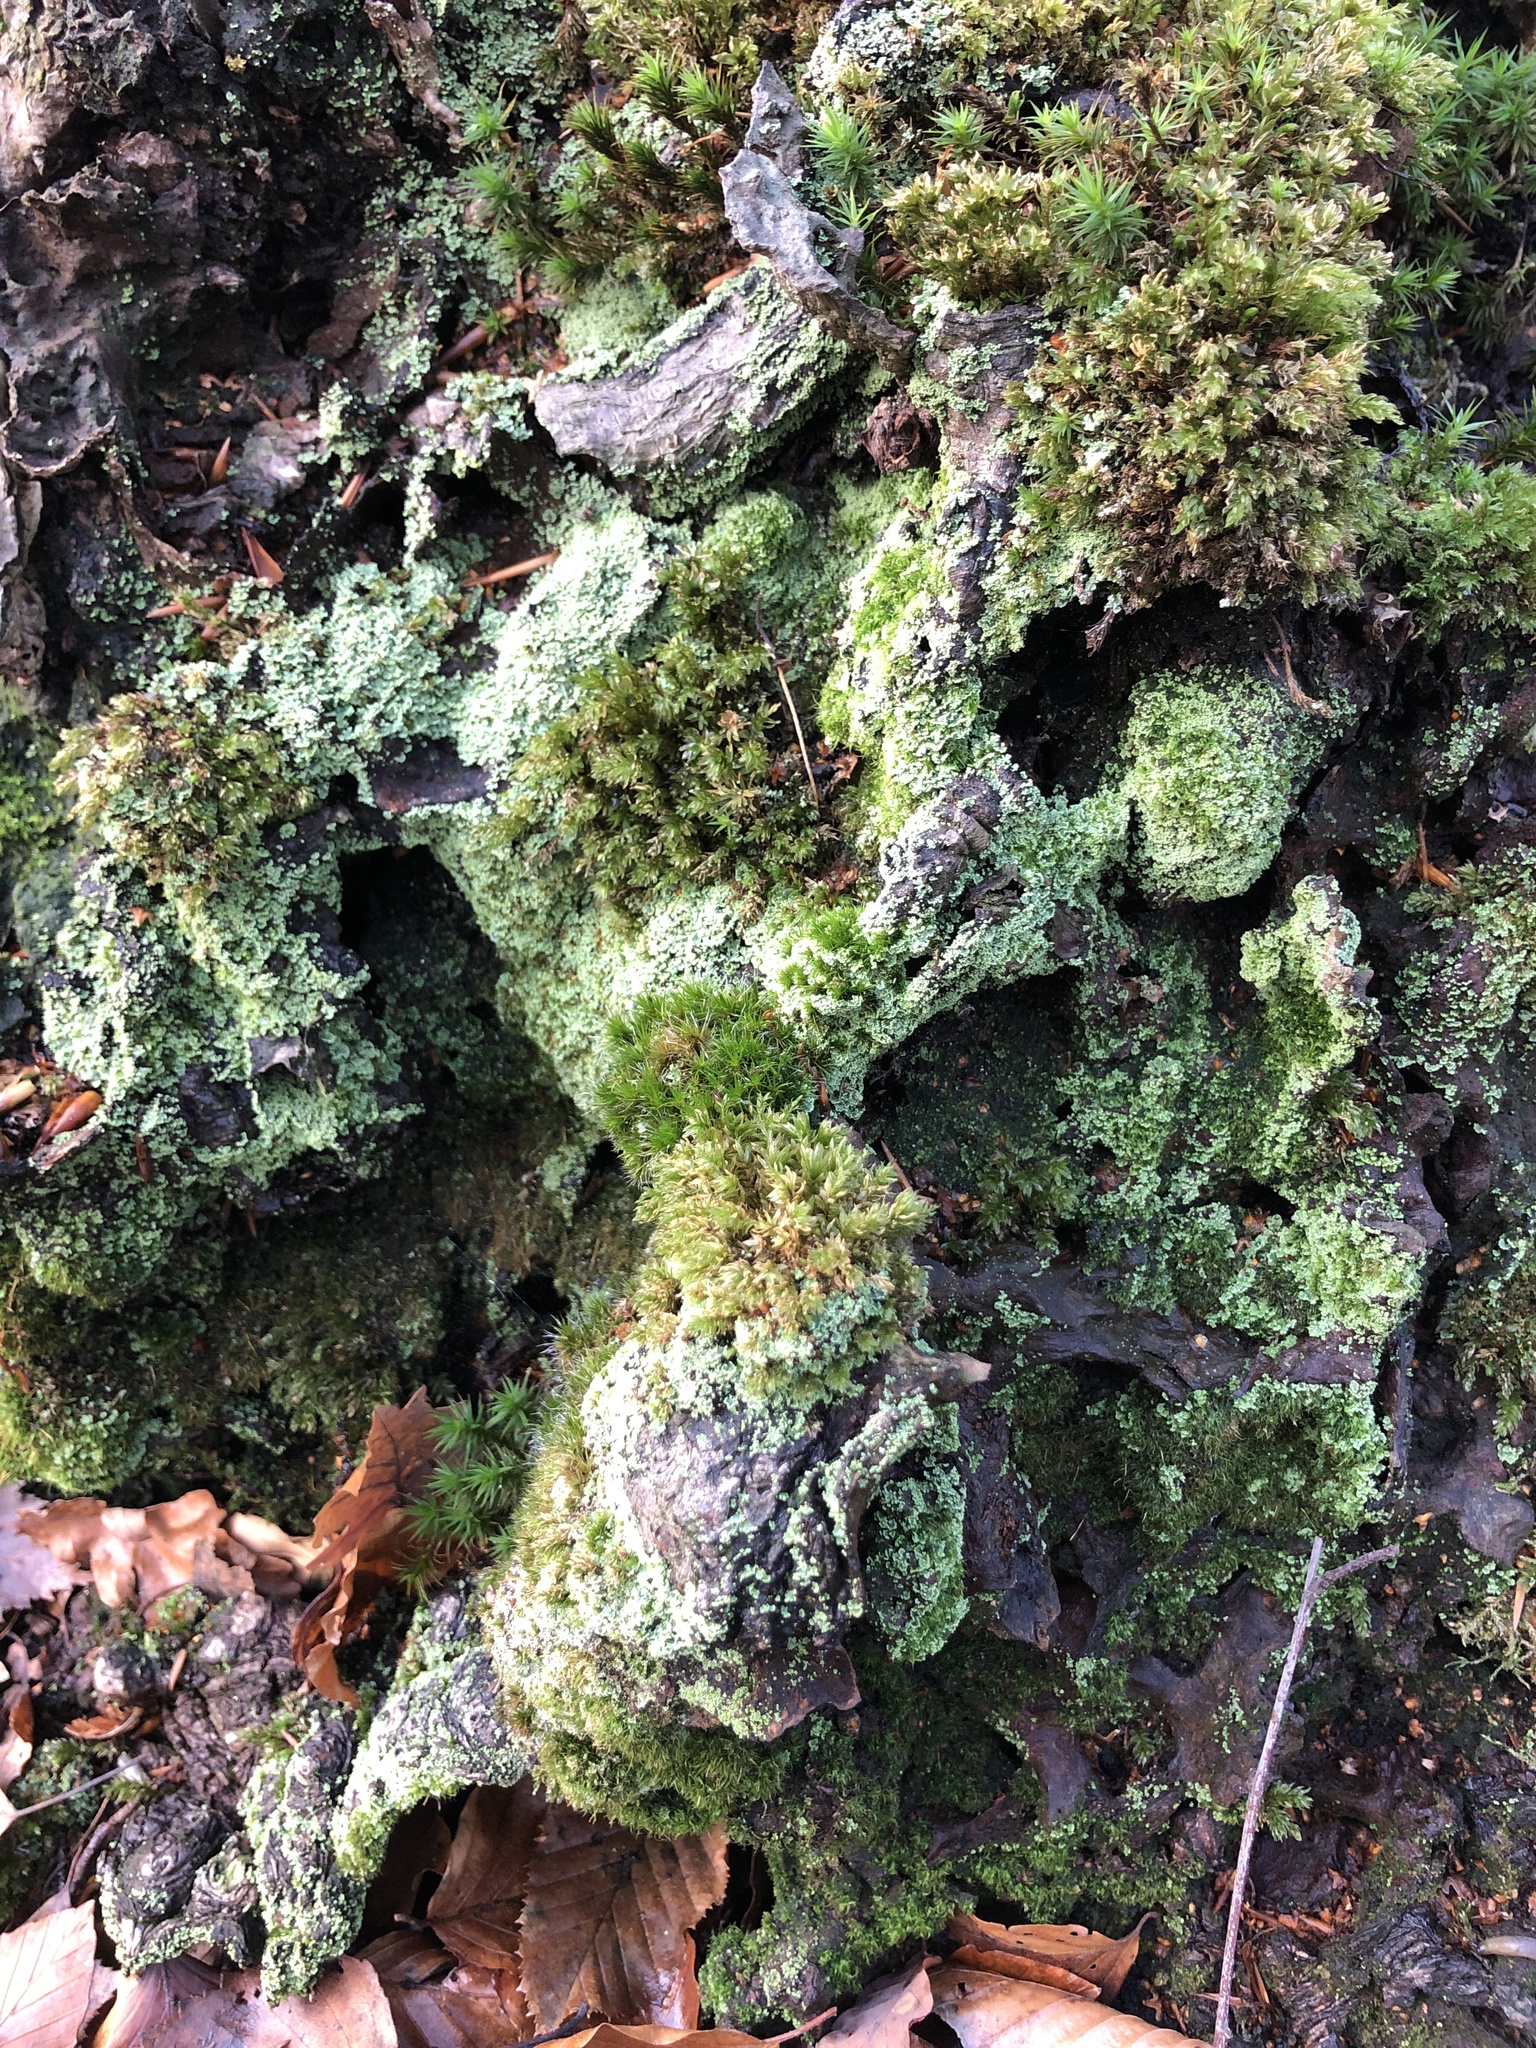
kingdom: Plantae
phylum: Bryophyta
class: Bryopsida
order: Dicranales
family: Leucobryaceae
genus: Campylopus
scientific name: Campylopus introflexus
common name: Heath star moss
